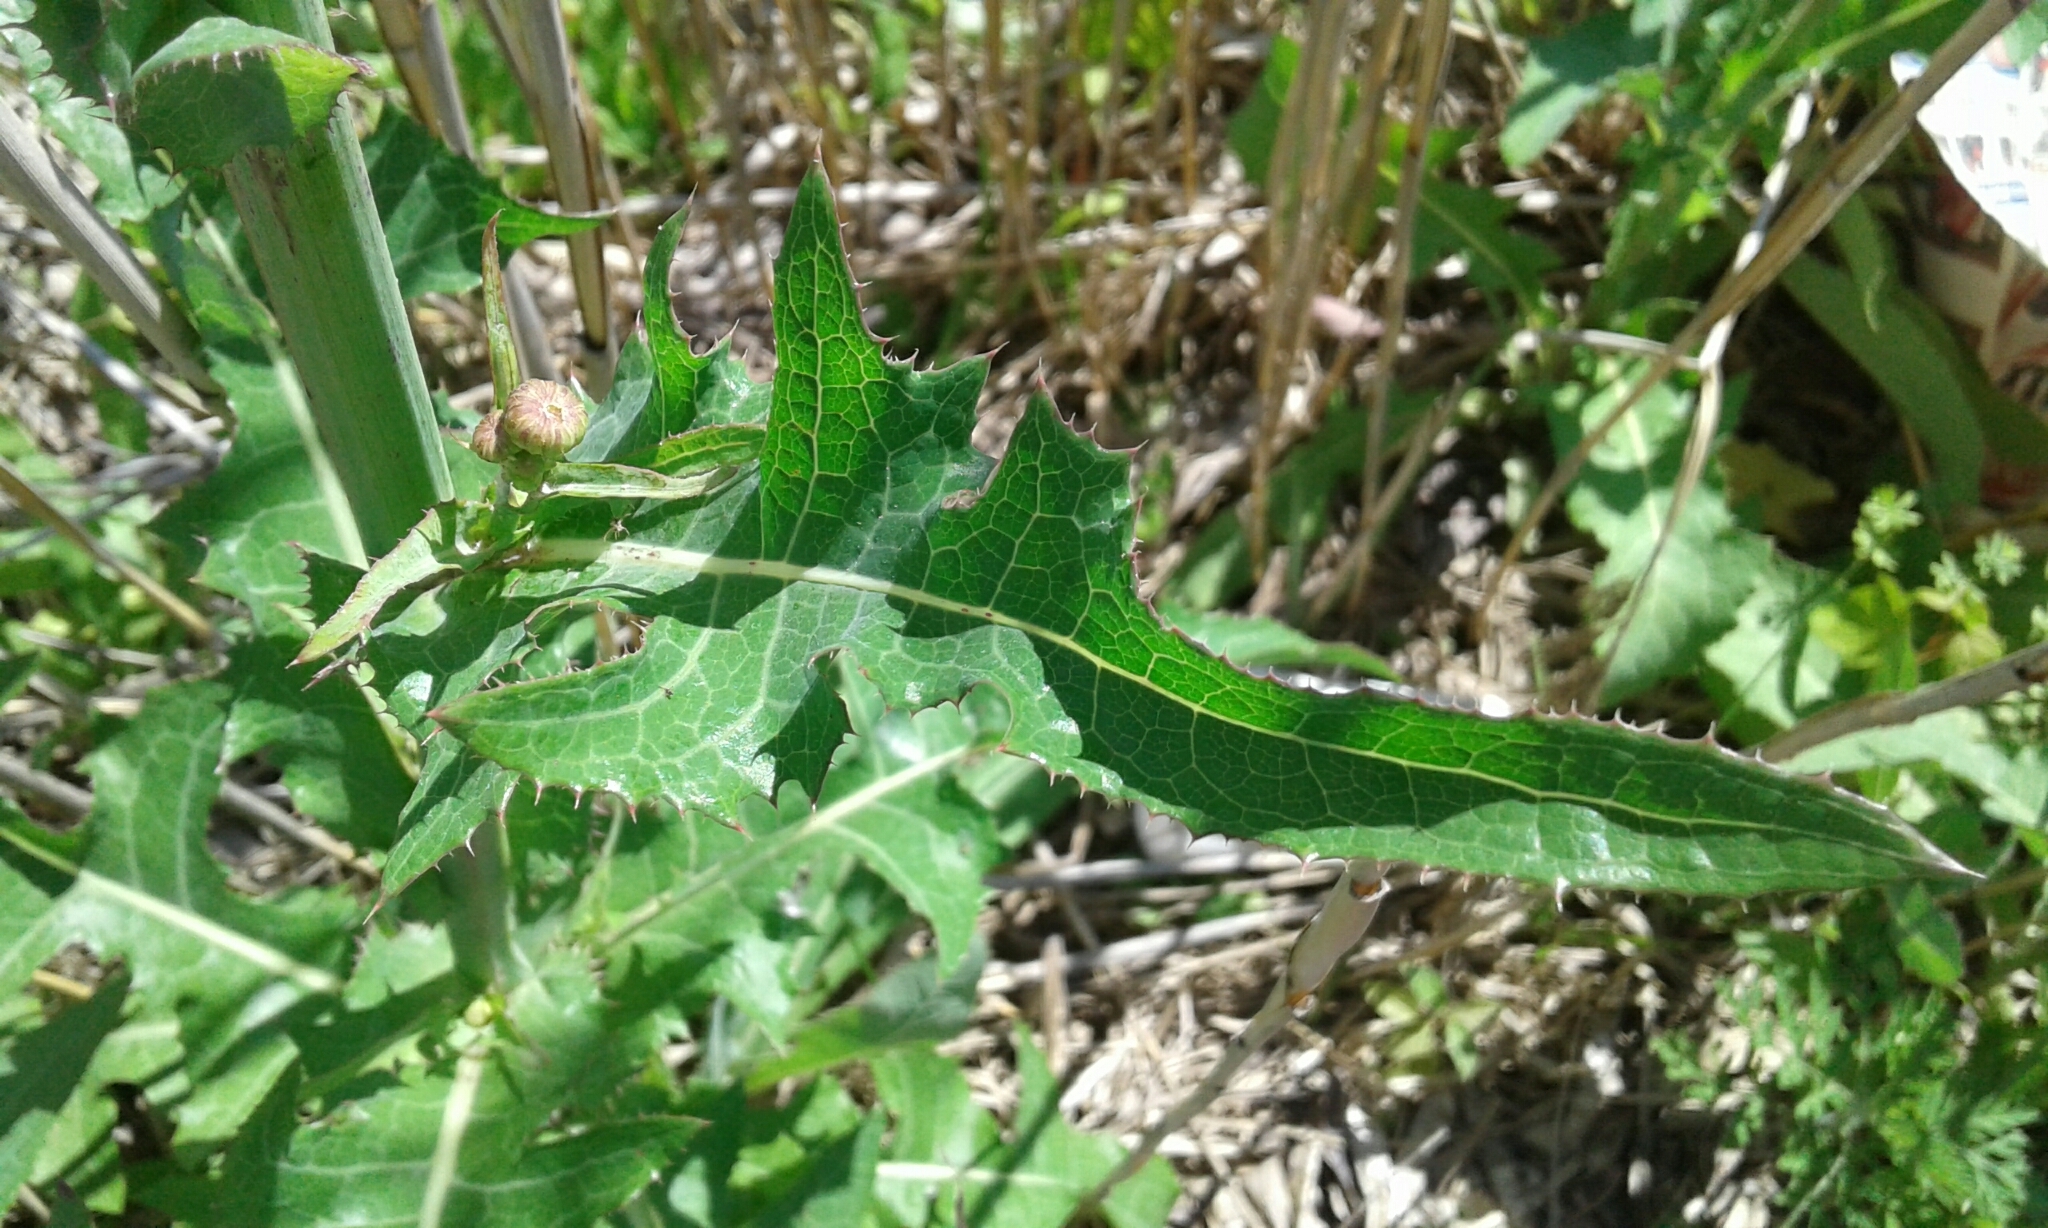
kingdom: Plantae
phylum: Tracheophyta
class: Magnoliopsida
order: Asterales
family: Asteraceae
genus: Sonchus
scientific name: Sonchus arvensis
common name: Perennial sow-thistle
